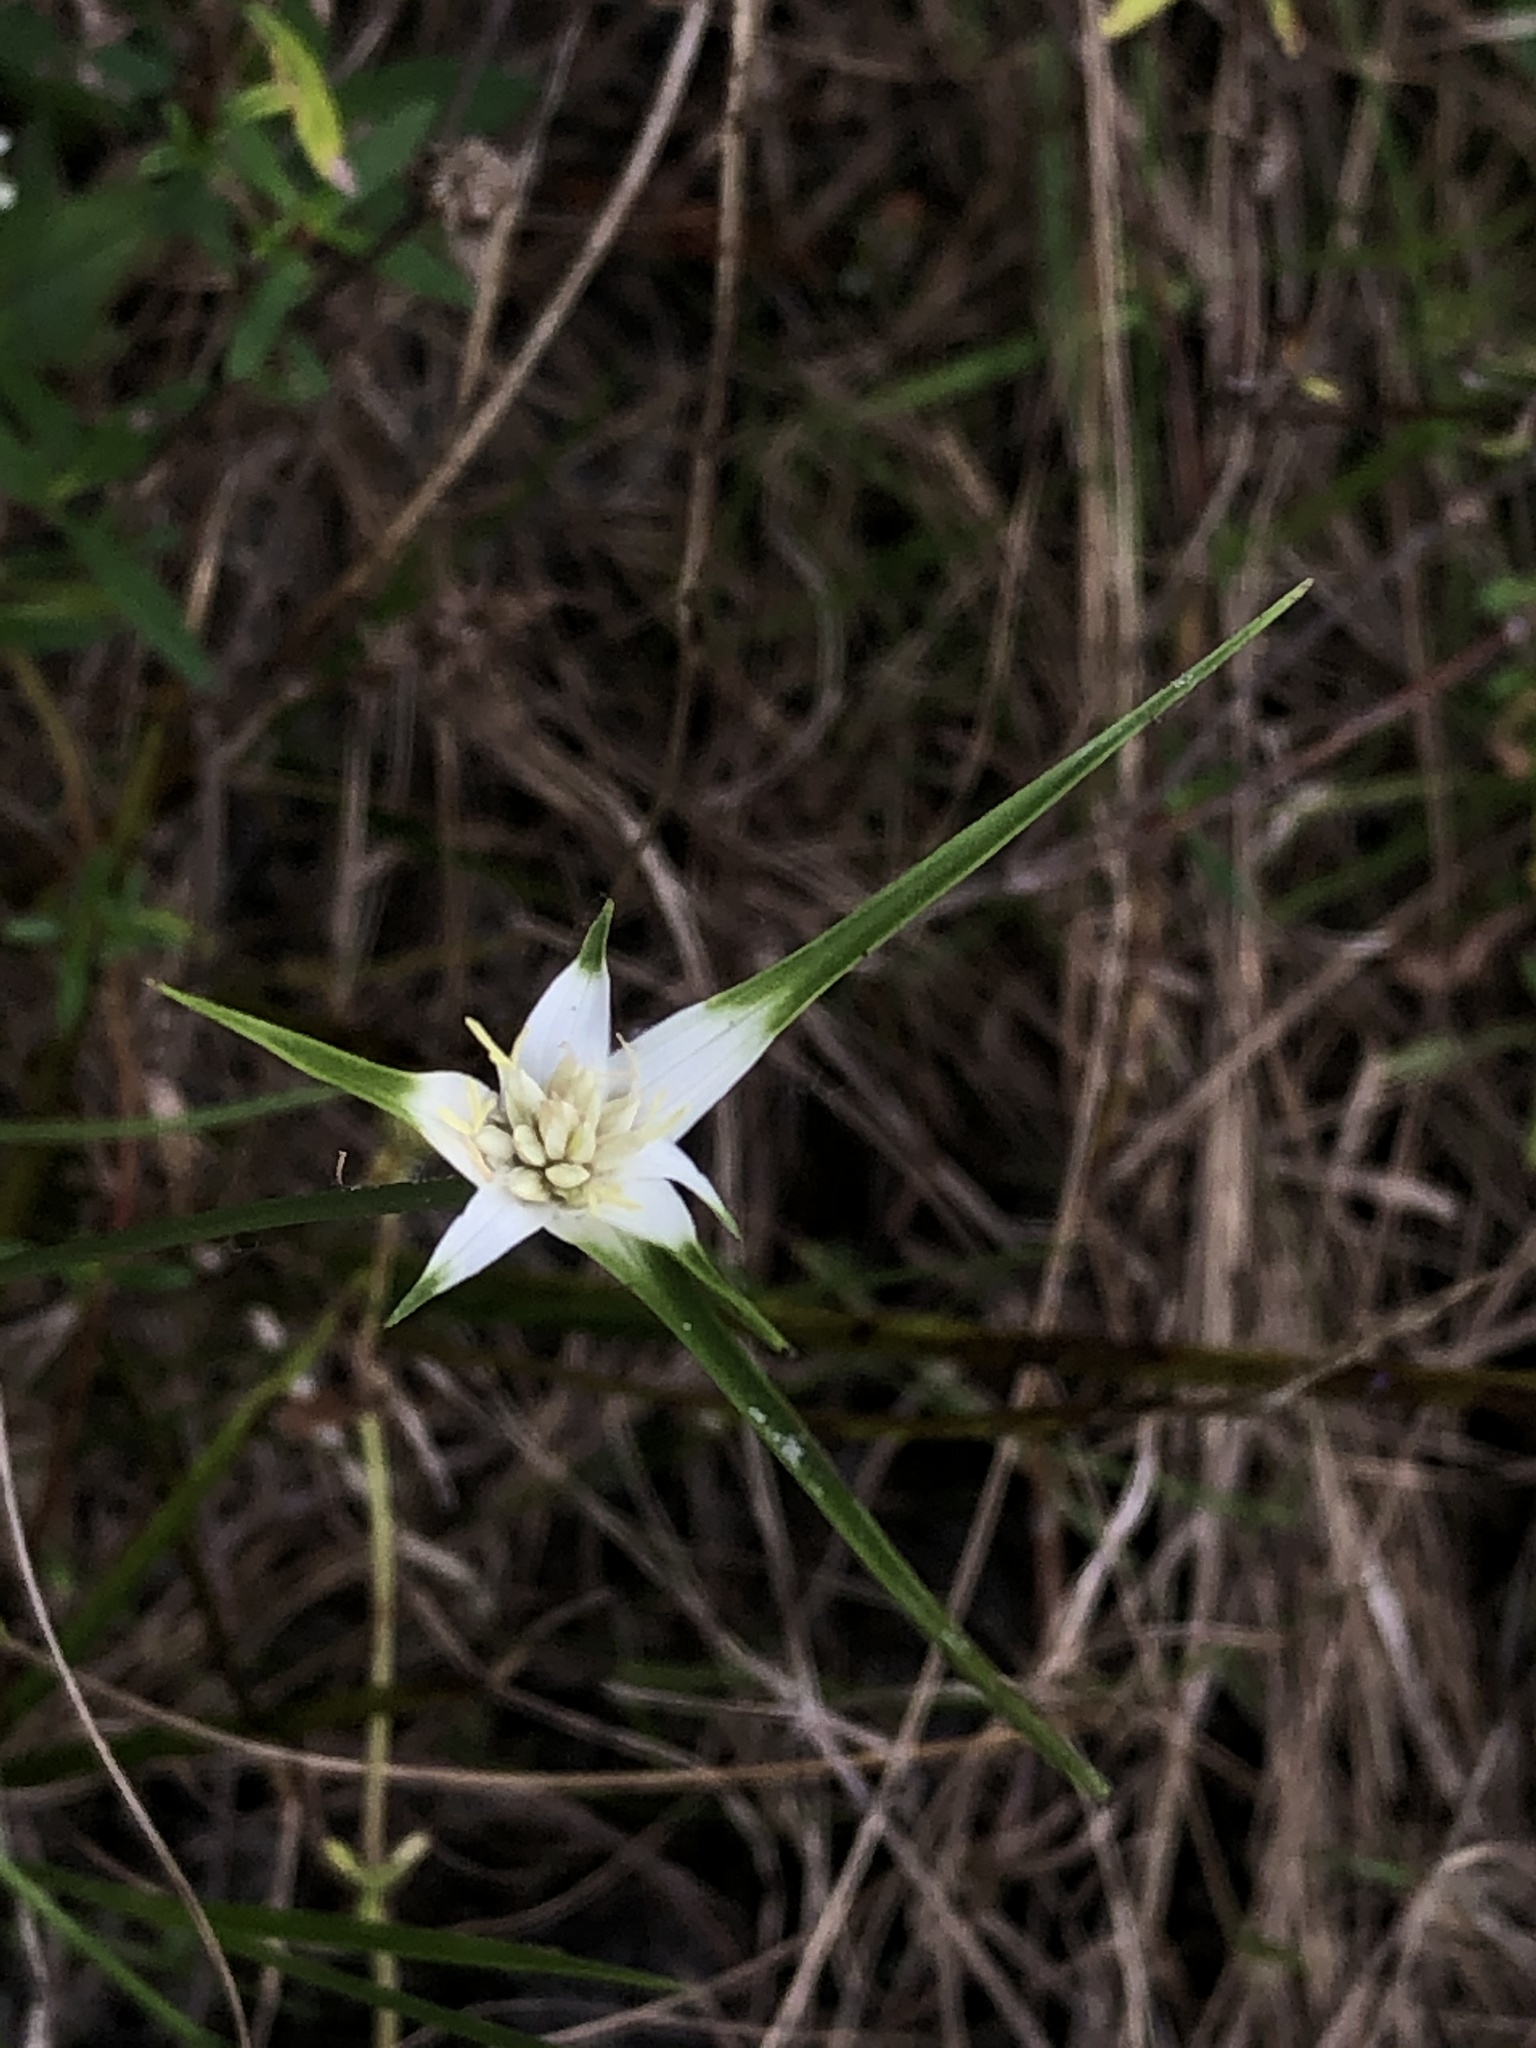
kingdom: Plantae
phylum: Tracheophyta
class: Liliopsida
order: Poales
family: Cyperaceae
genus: Rhynchospora
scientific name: Rhynchospora colorata
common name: Star sedge
